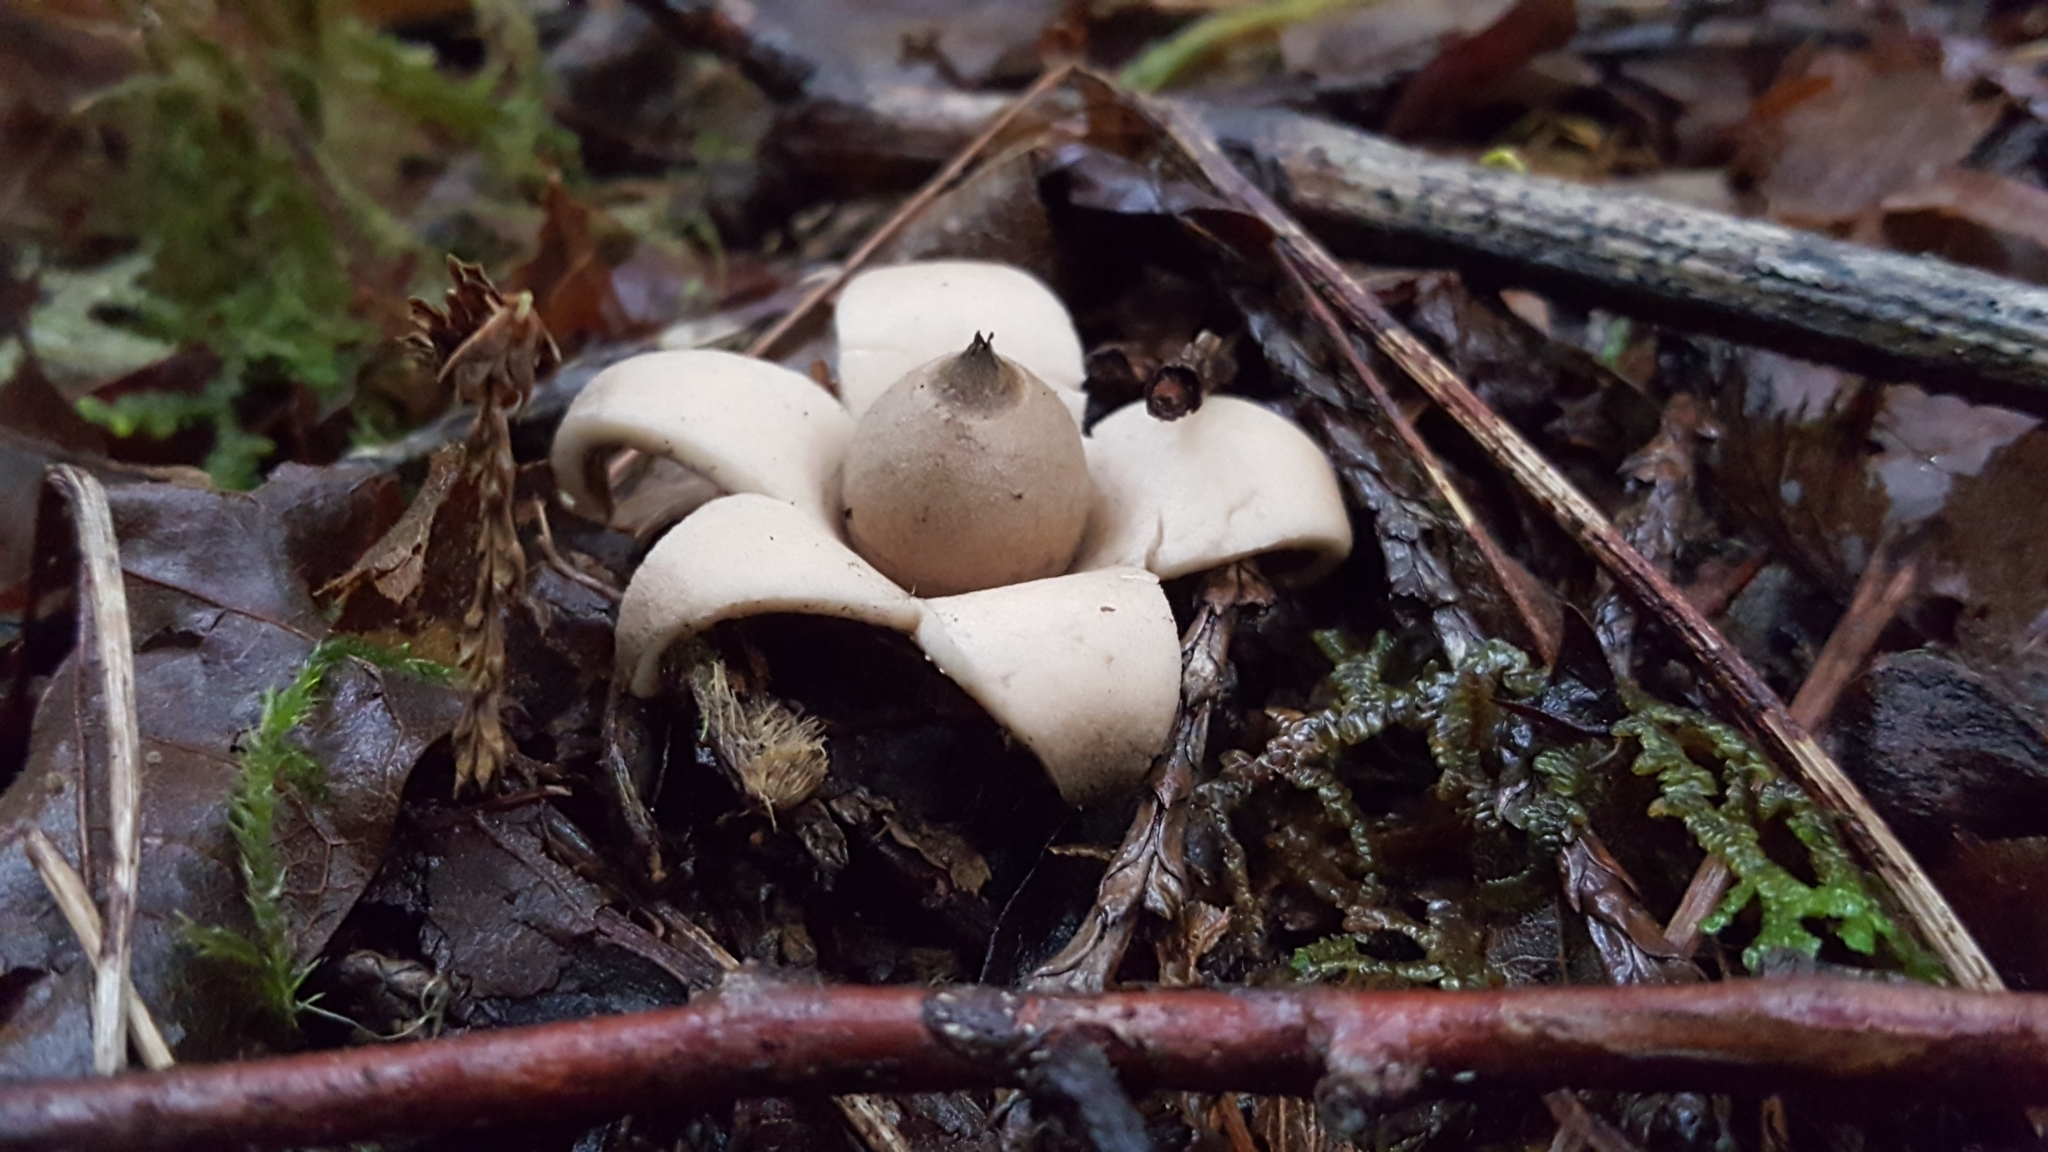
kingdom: Fungi
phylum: Basidiomycota
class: Agaricomycetes
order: Geastrales
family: Geastraceae
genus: Geastrum
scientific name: Geastrum saccatum
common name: Rounded earthstar
